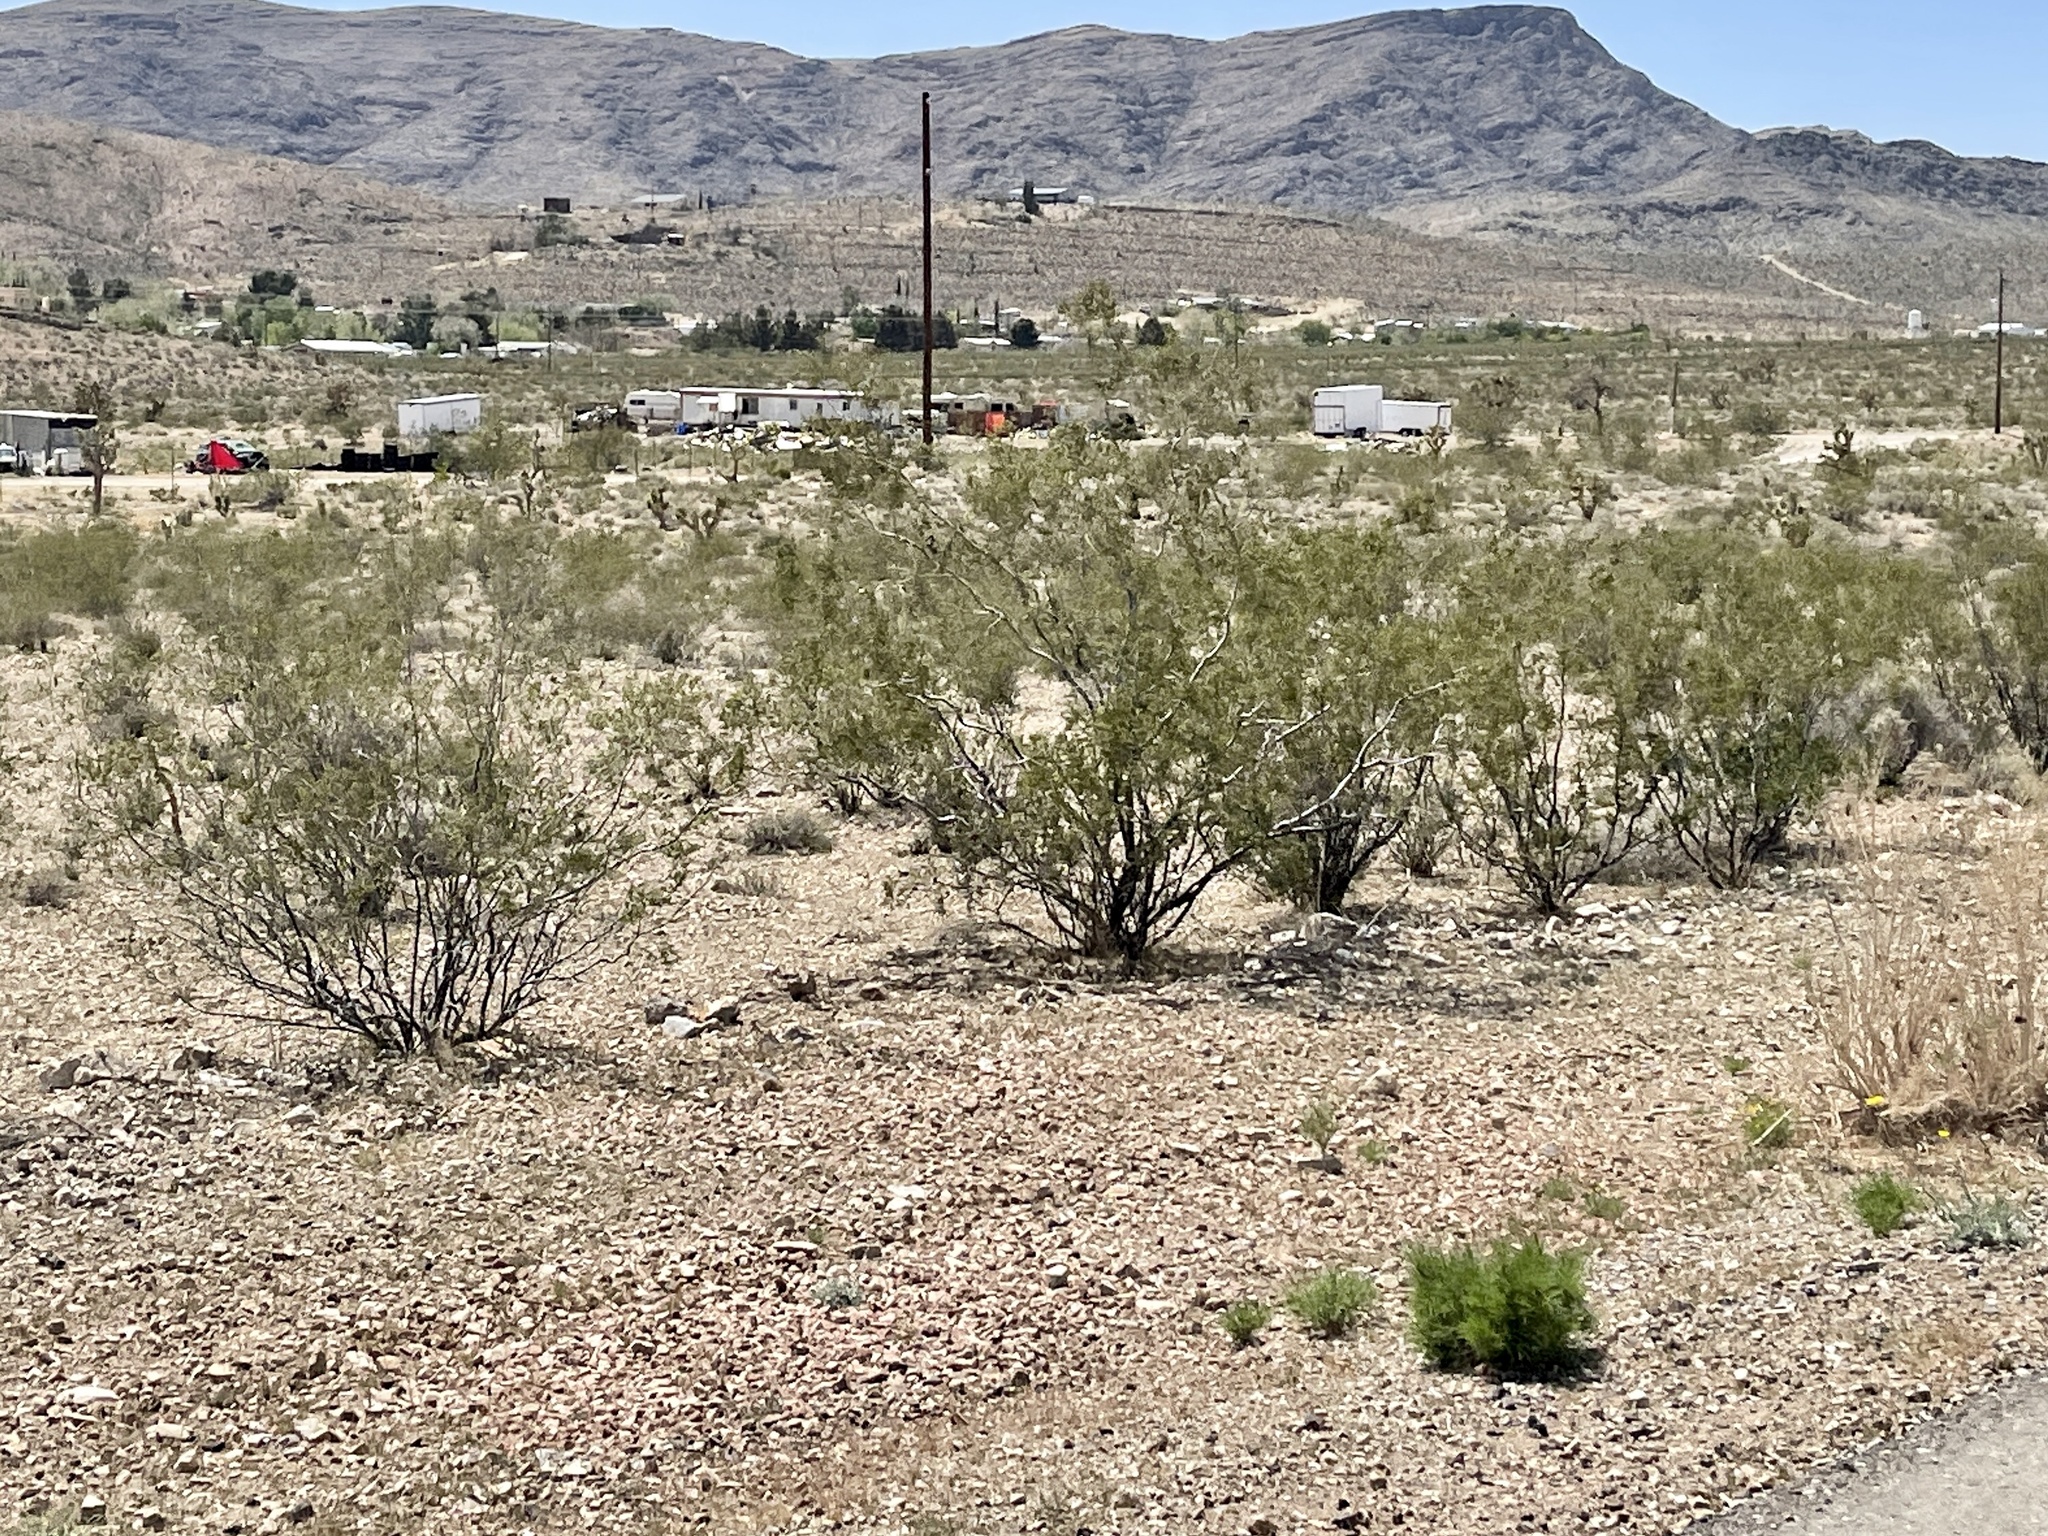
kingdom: Plantae
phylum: Tracheophyta
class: Magnoliopsida
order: Zygophyllales
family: Zygophyllaceae
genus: Larrea
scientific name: Larrea tridentata
